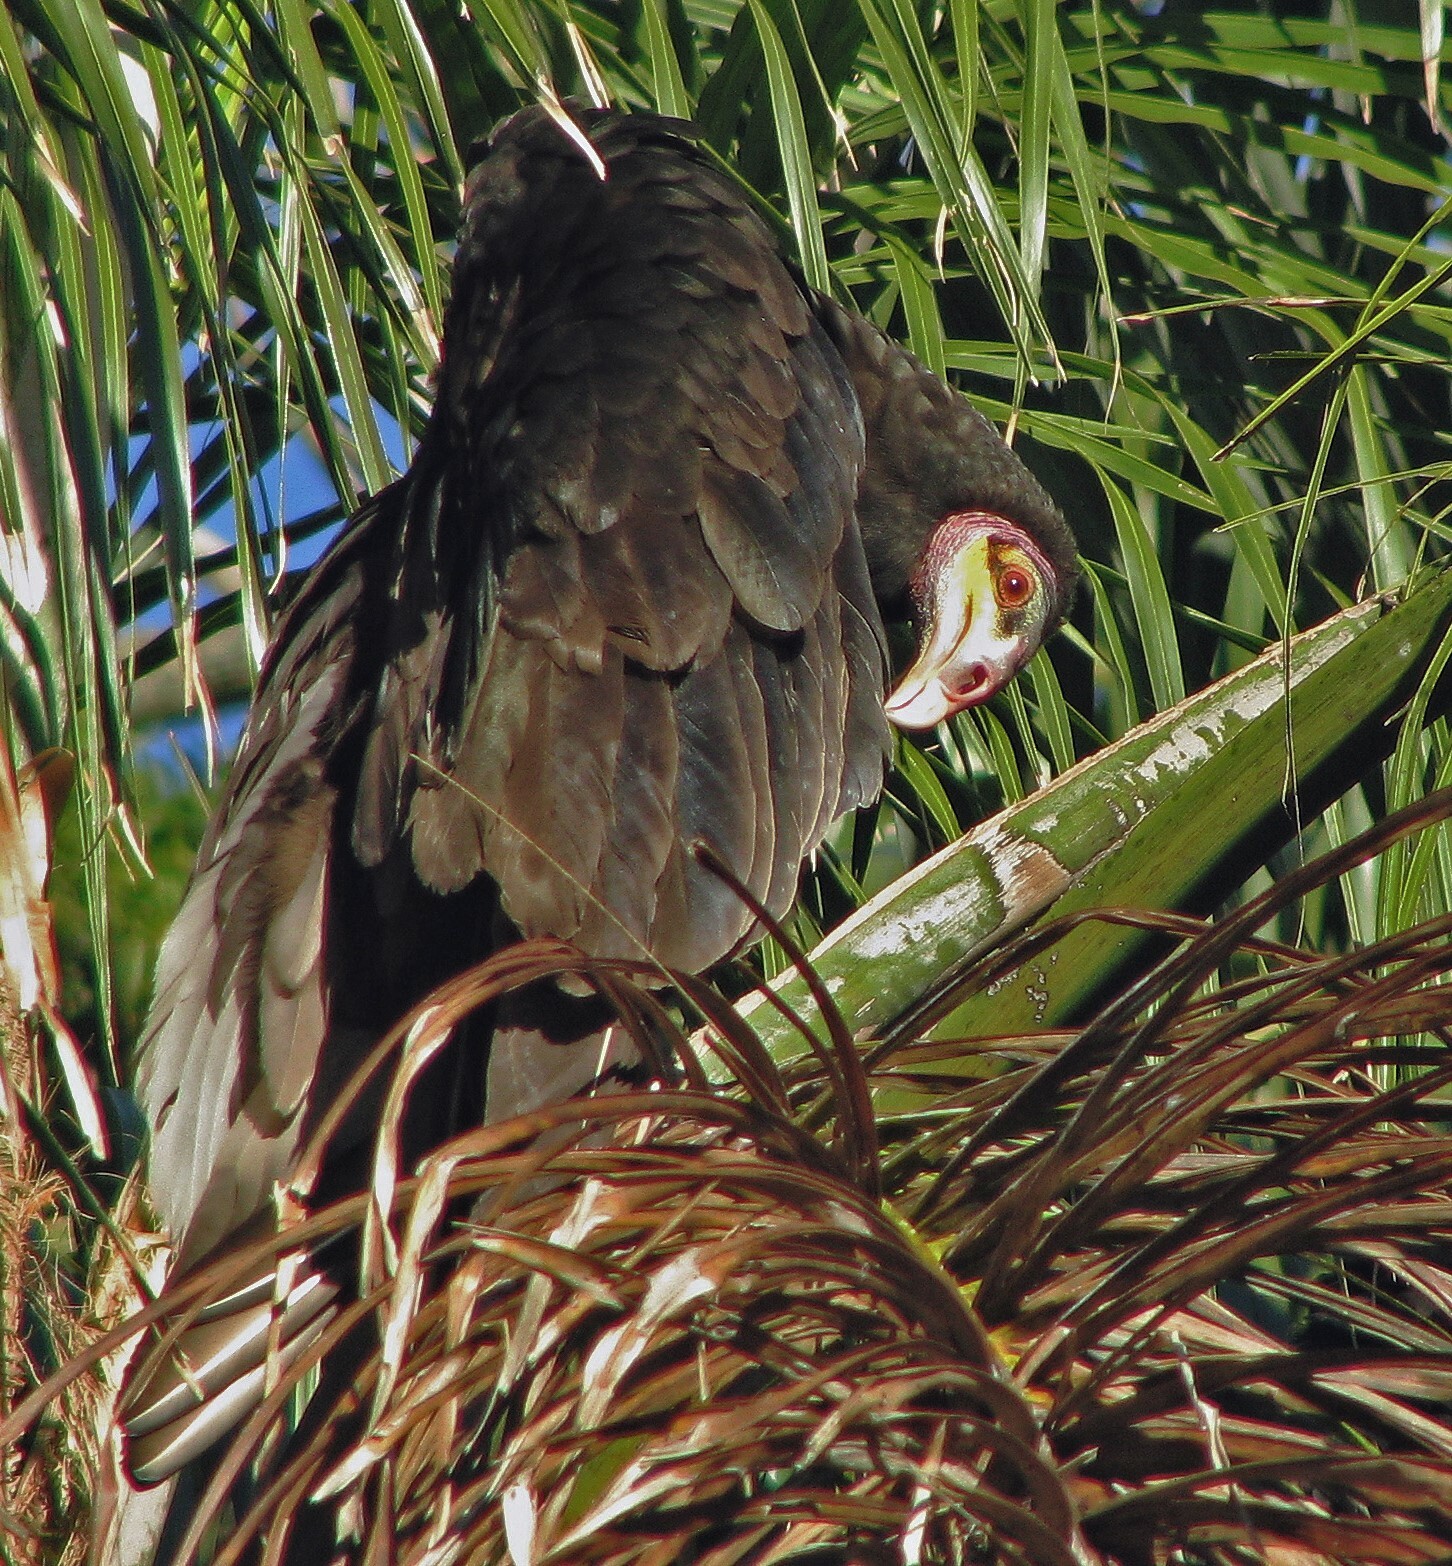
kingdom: Animalia
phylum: Chordata
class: Aves
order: Accipitriformes
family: Cathartidae
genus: Cathartes
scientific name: Cathartes burrovianus
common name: Lesser yellow-headed vulture
